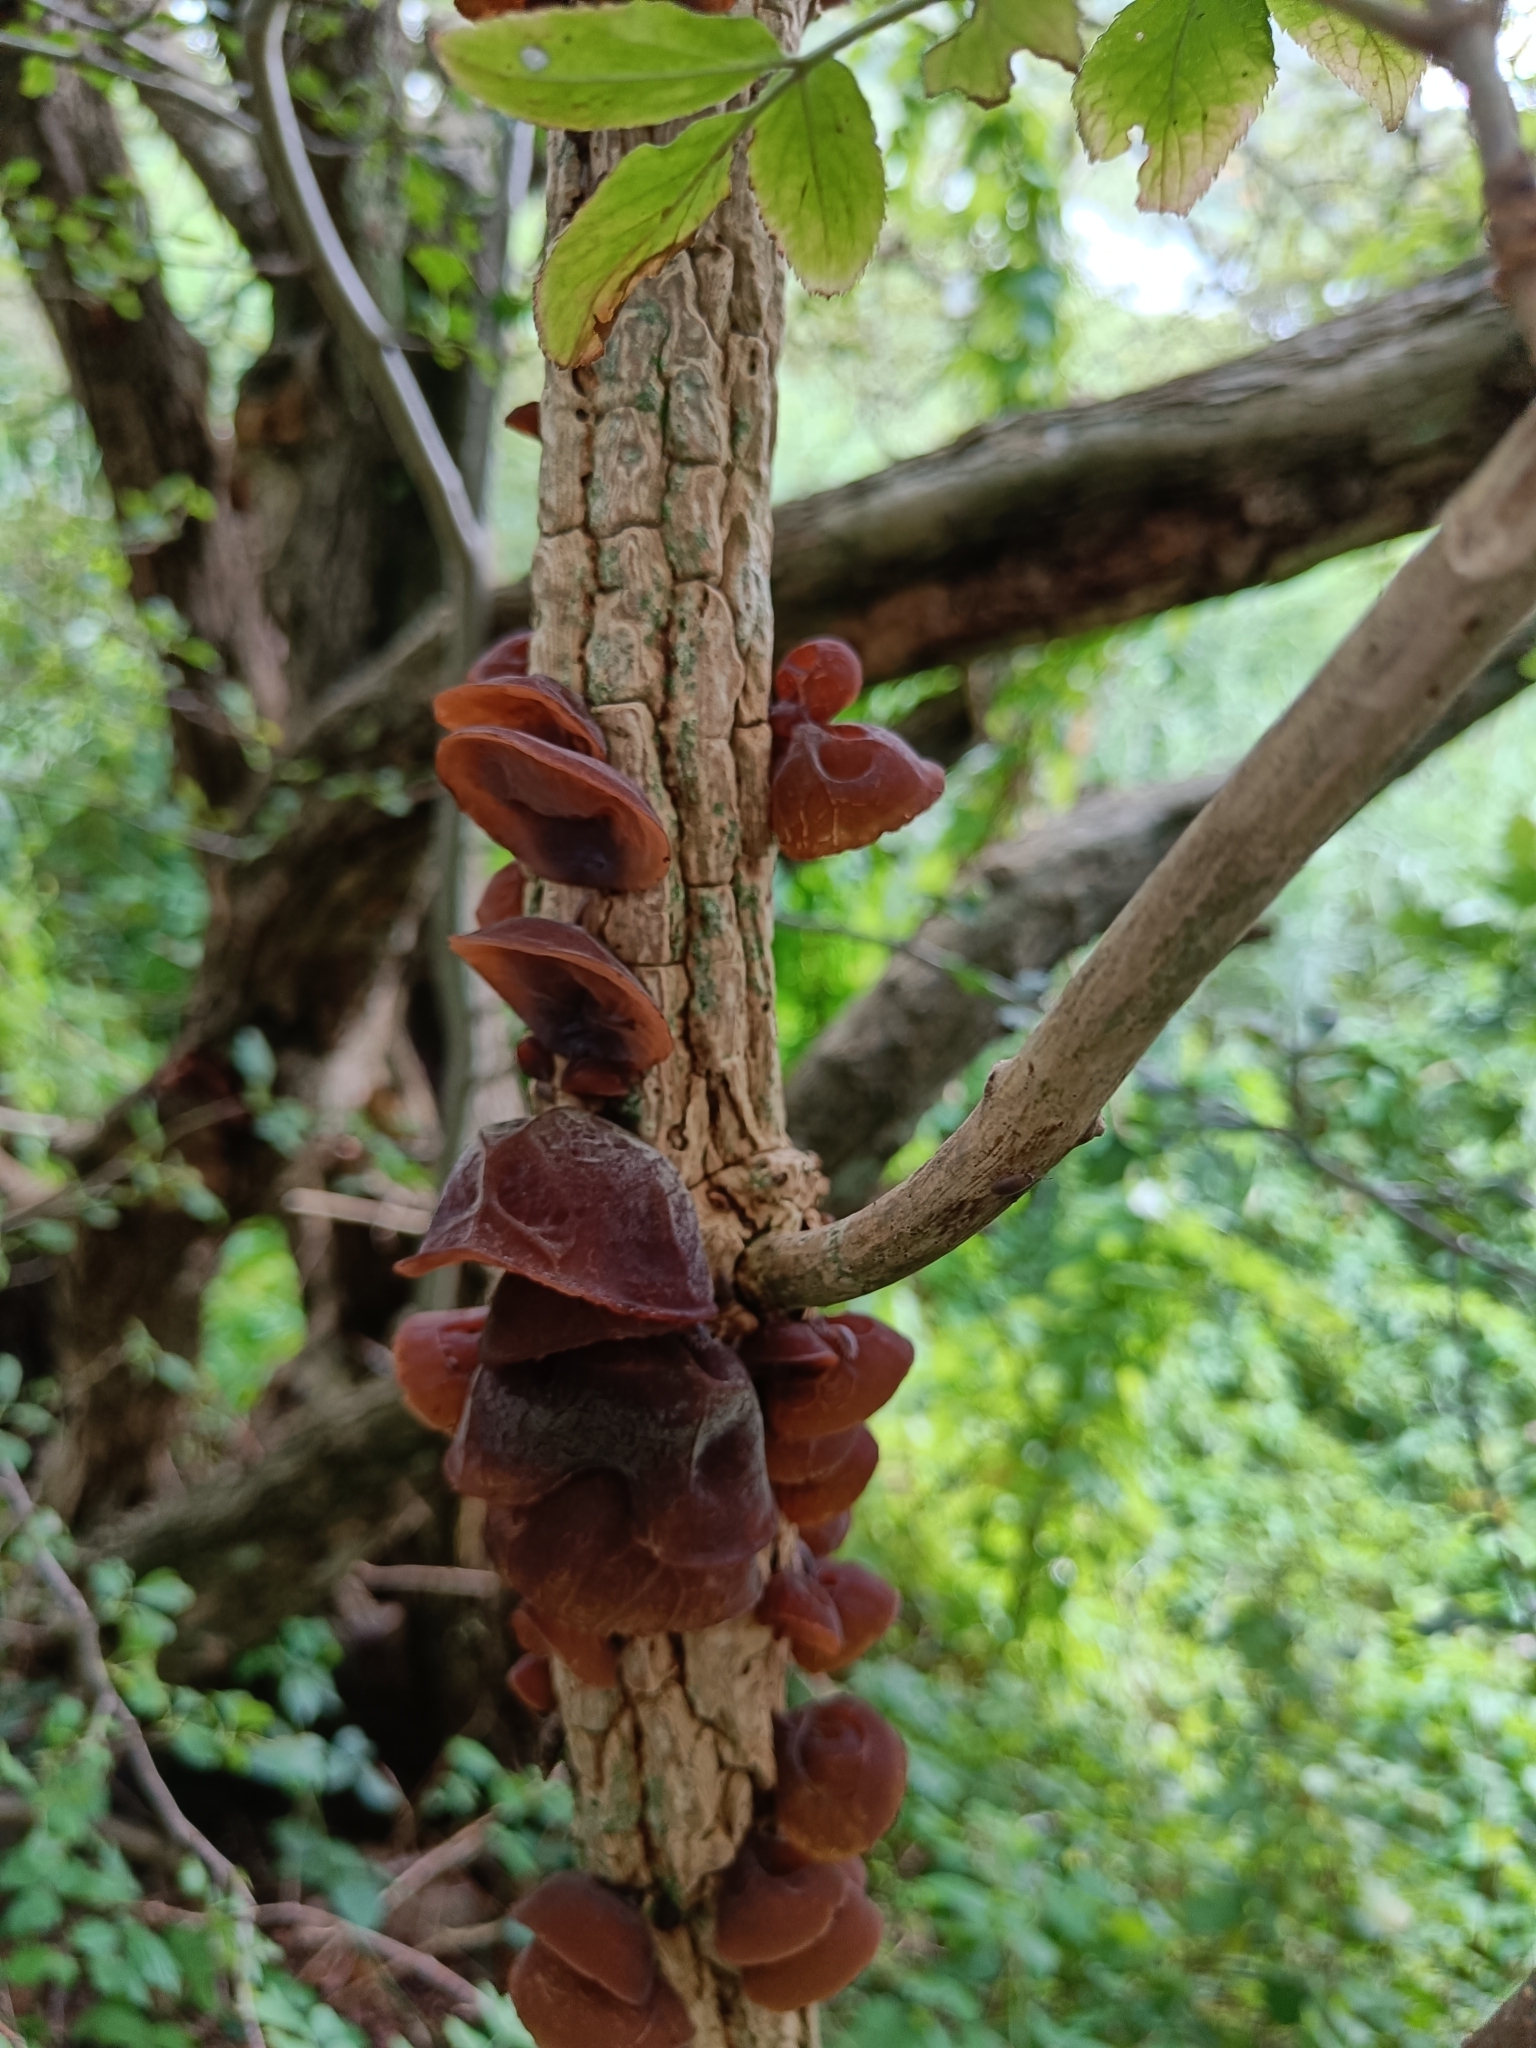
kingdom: Fungi
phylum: Basidiomycota
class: Agaricomycetes
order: Auriculariales
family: Auriculariaceae
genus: Auricularia
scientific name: Auricularia auricula-judae
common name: Jelly ear
